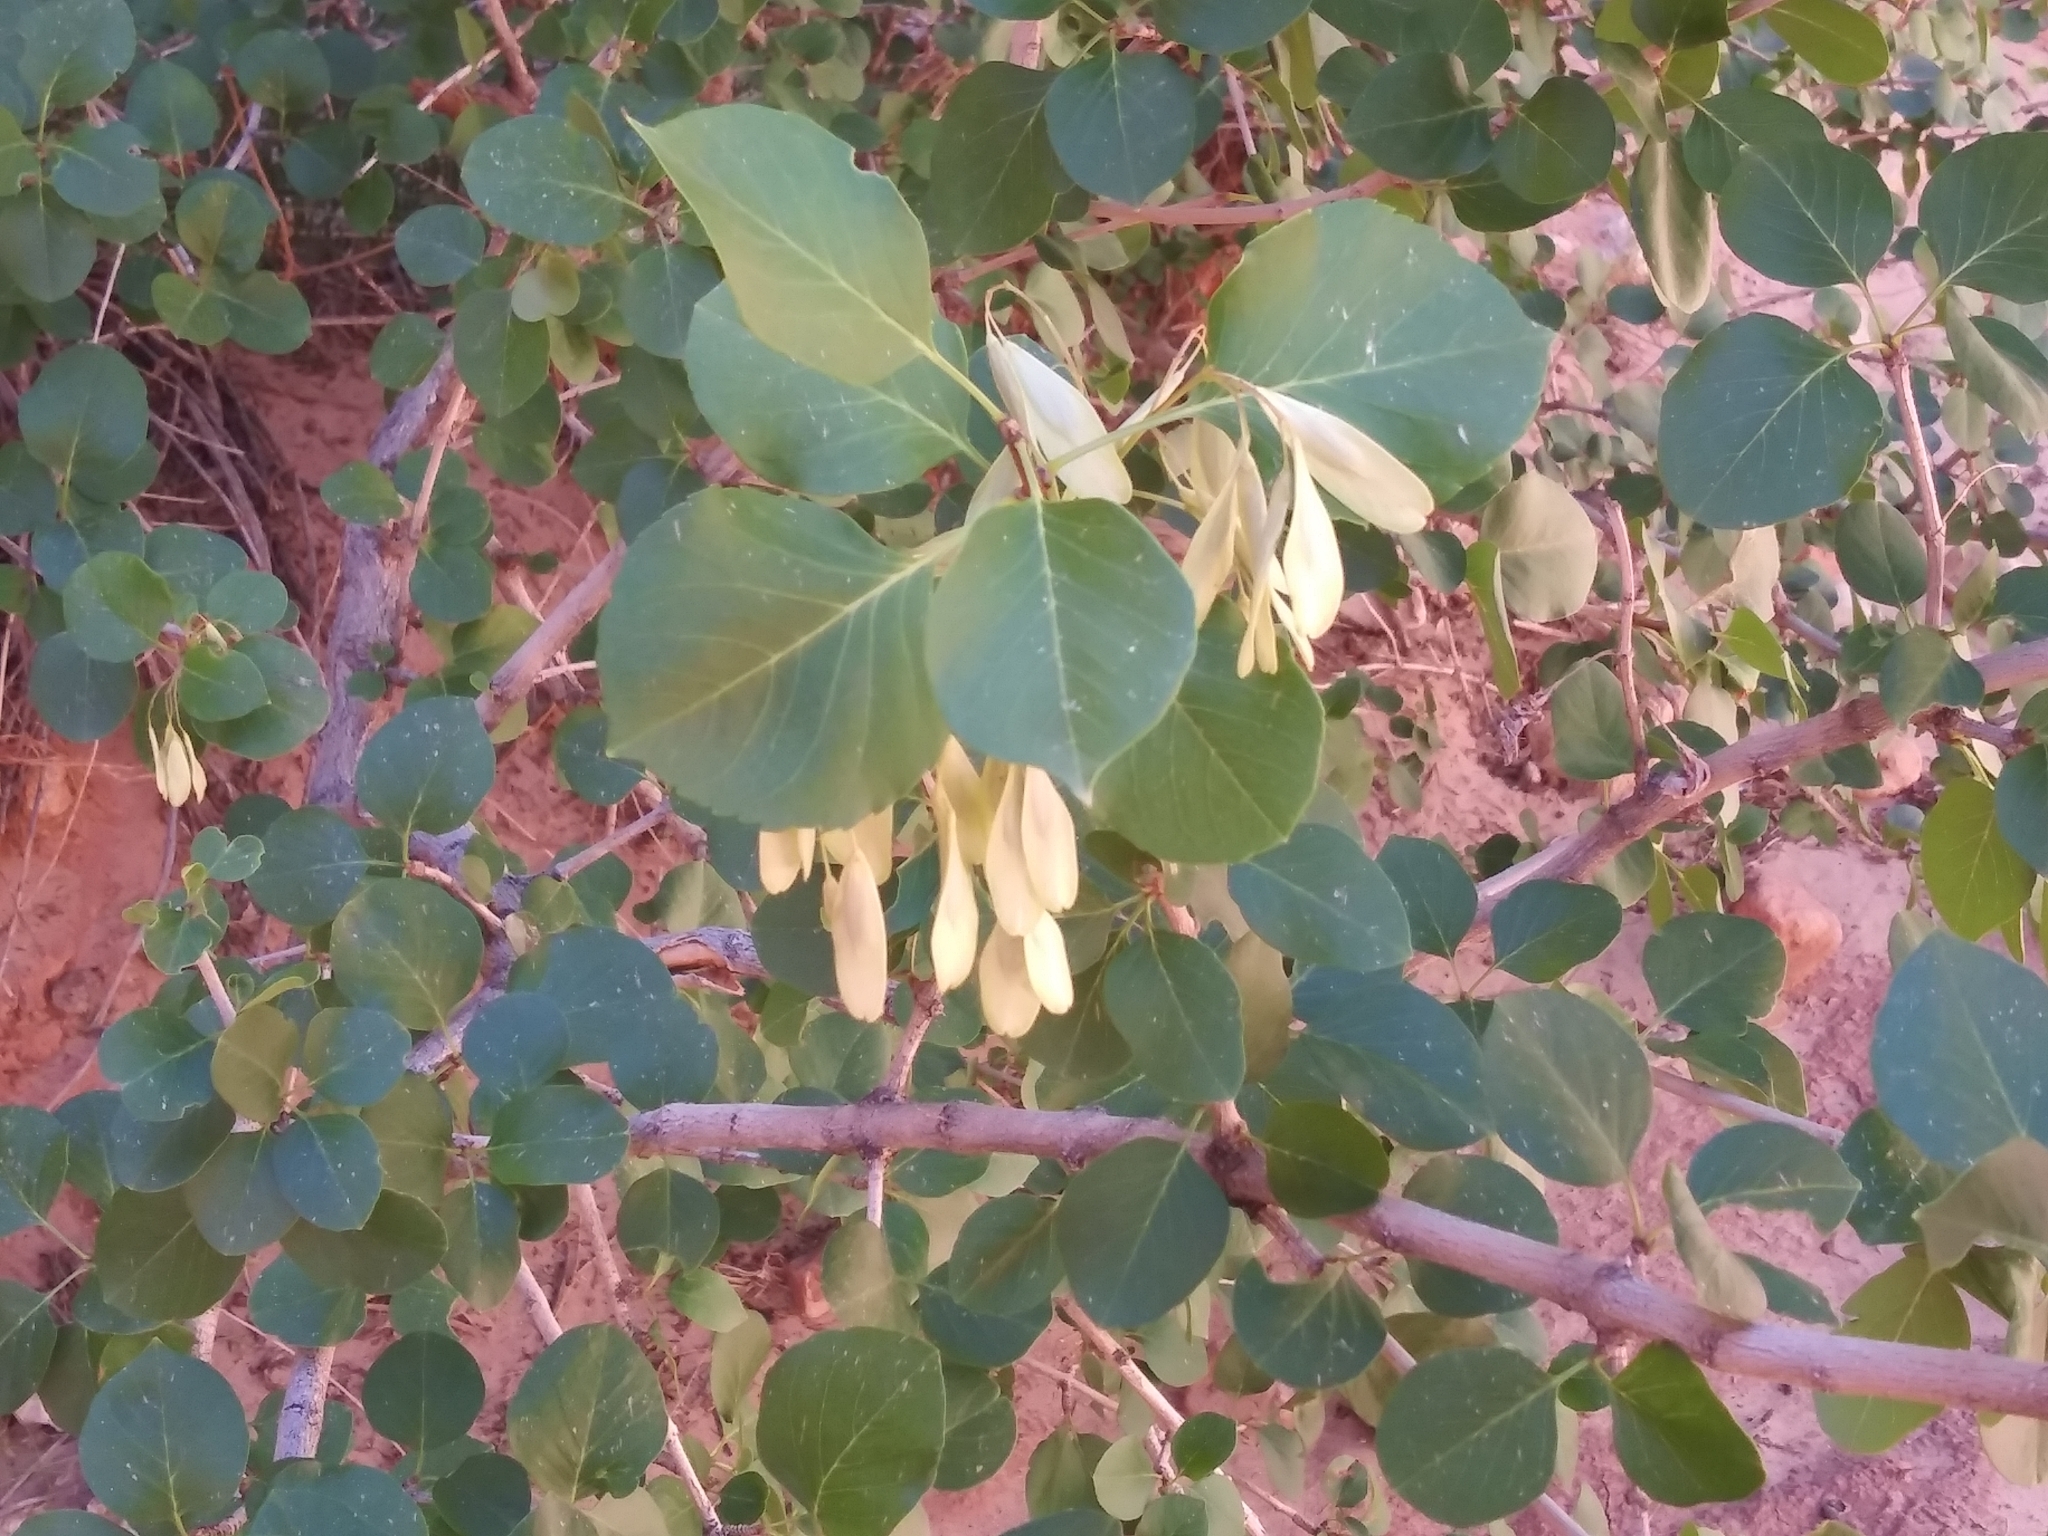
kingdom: Plantae
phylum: Tracheophyta
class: Magnoliopsida
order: Lamiales
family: Oleaceae
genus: Fraxinus
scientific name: Fraxinus anomala
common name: Utah ash
